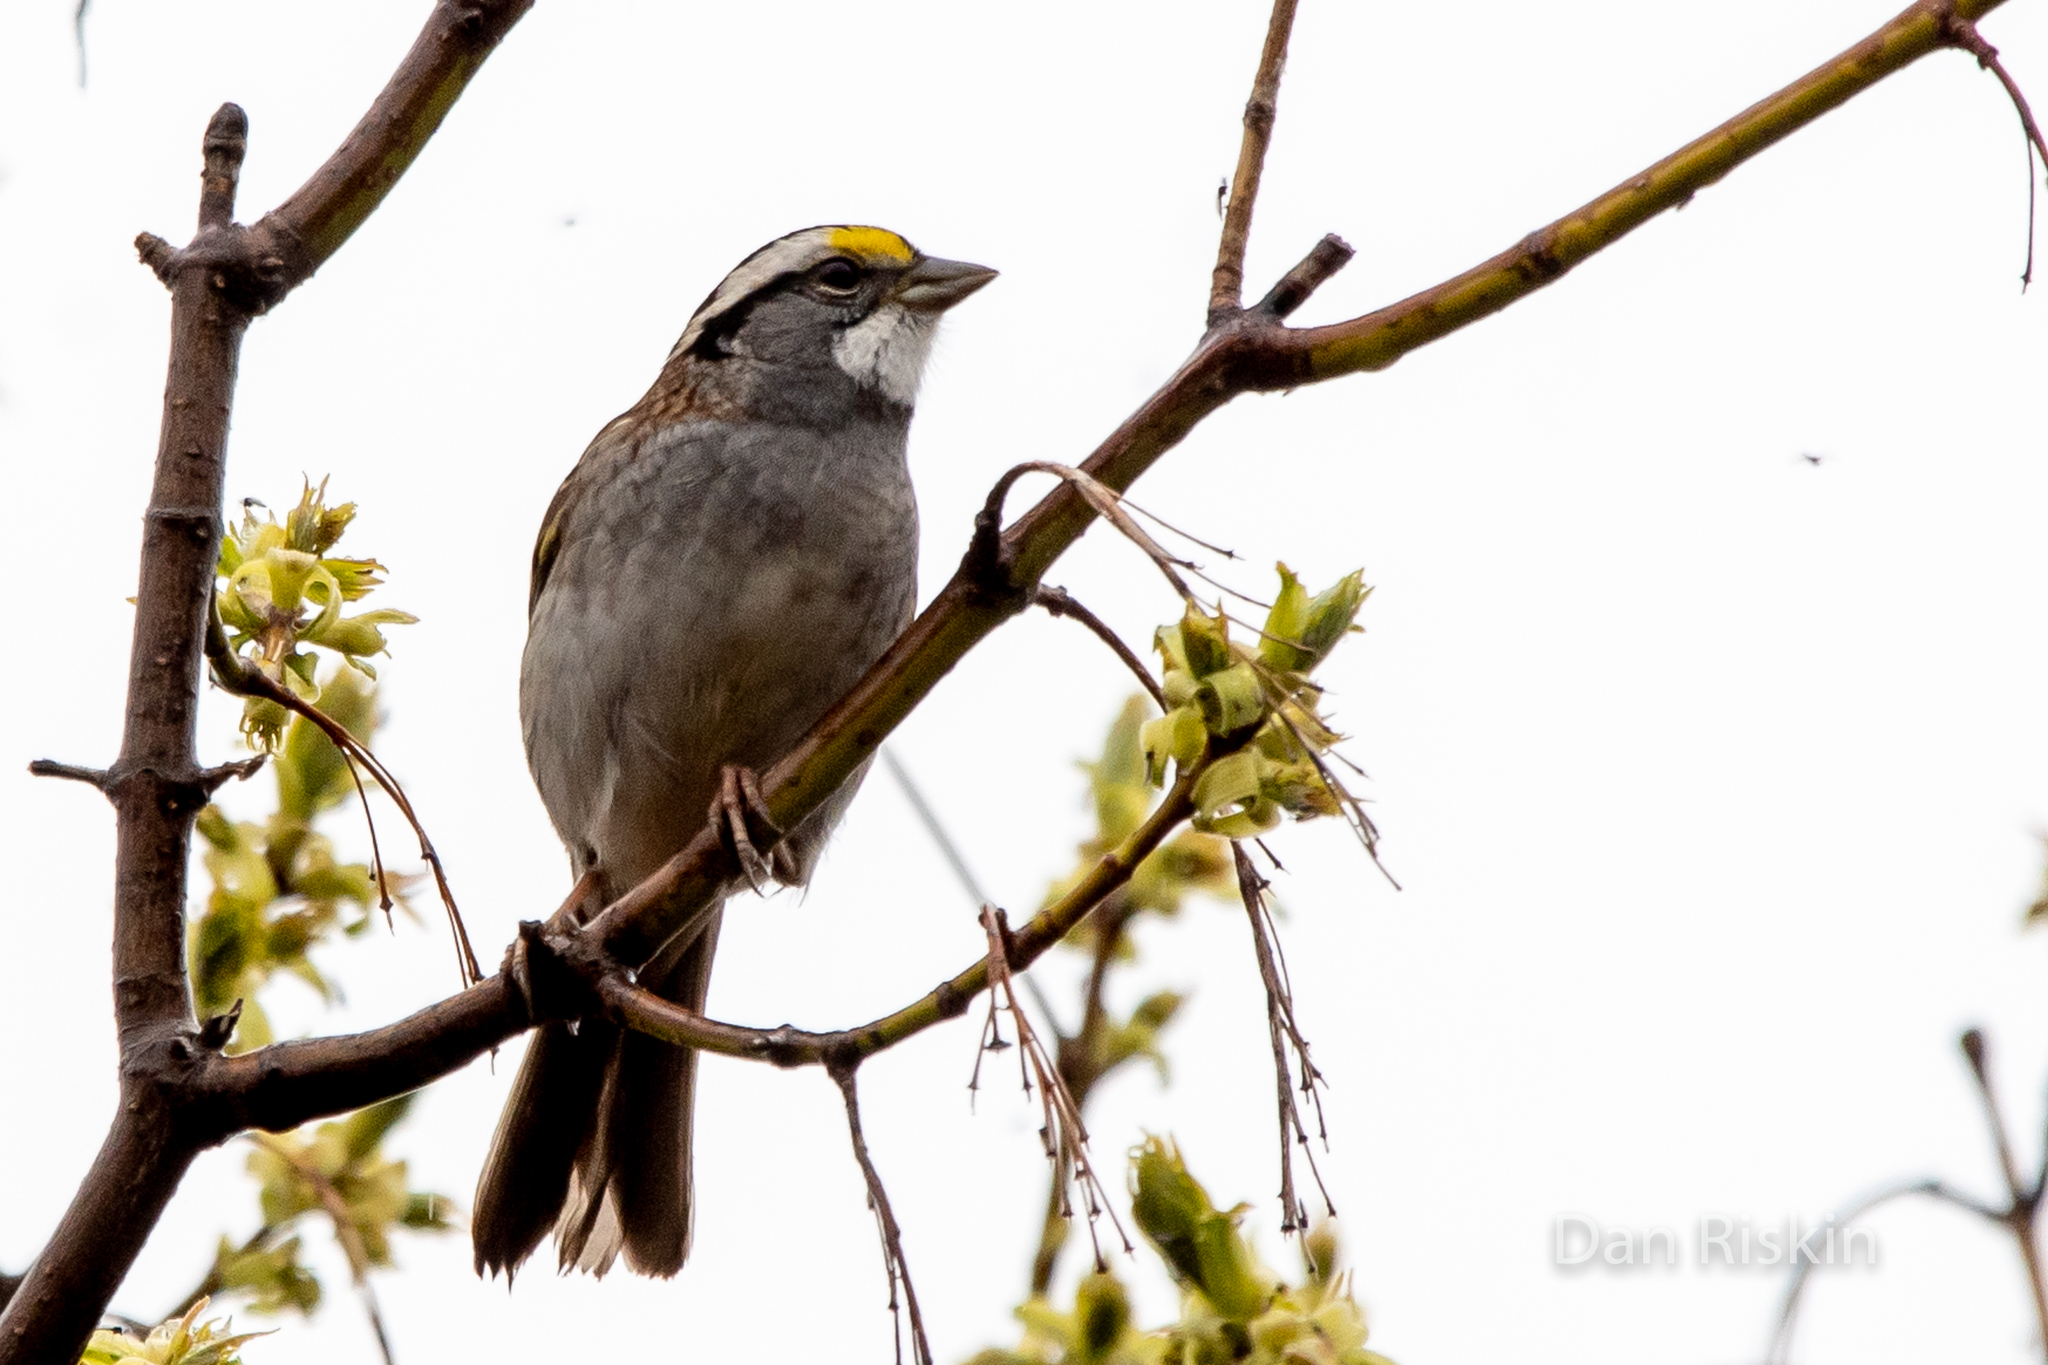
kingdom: Animalia
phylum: Chordata
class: Aves
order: Passeriformes
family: Passerellidae
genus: Zonotrichia
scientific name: Zonotrichia albicollis
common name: White-throated sparrow
